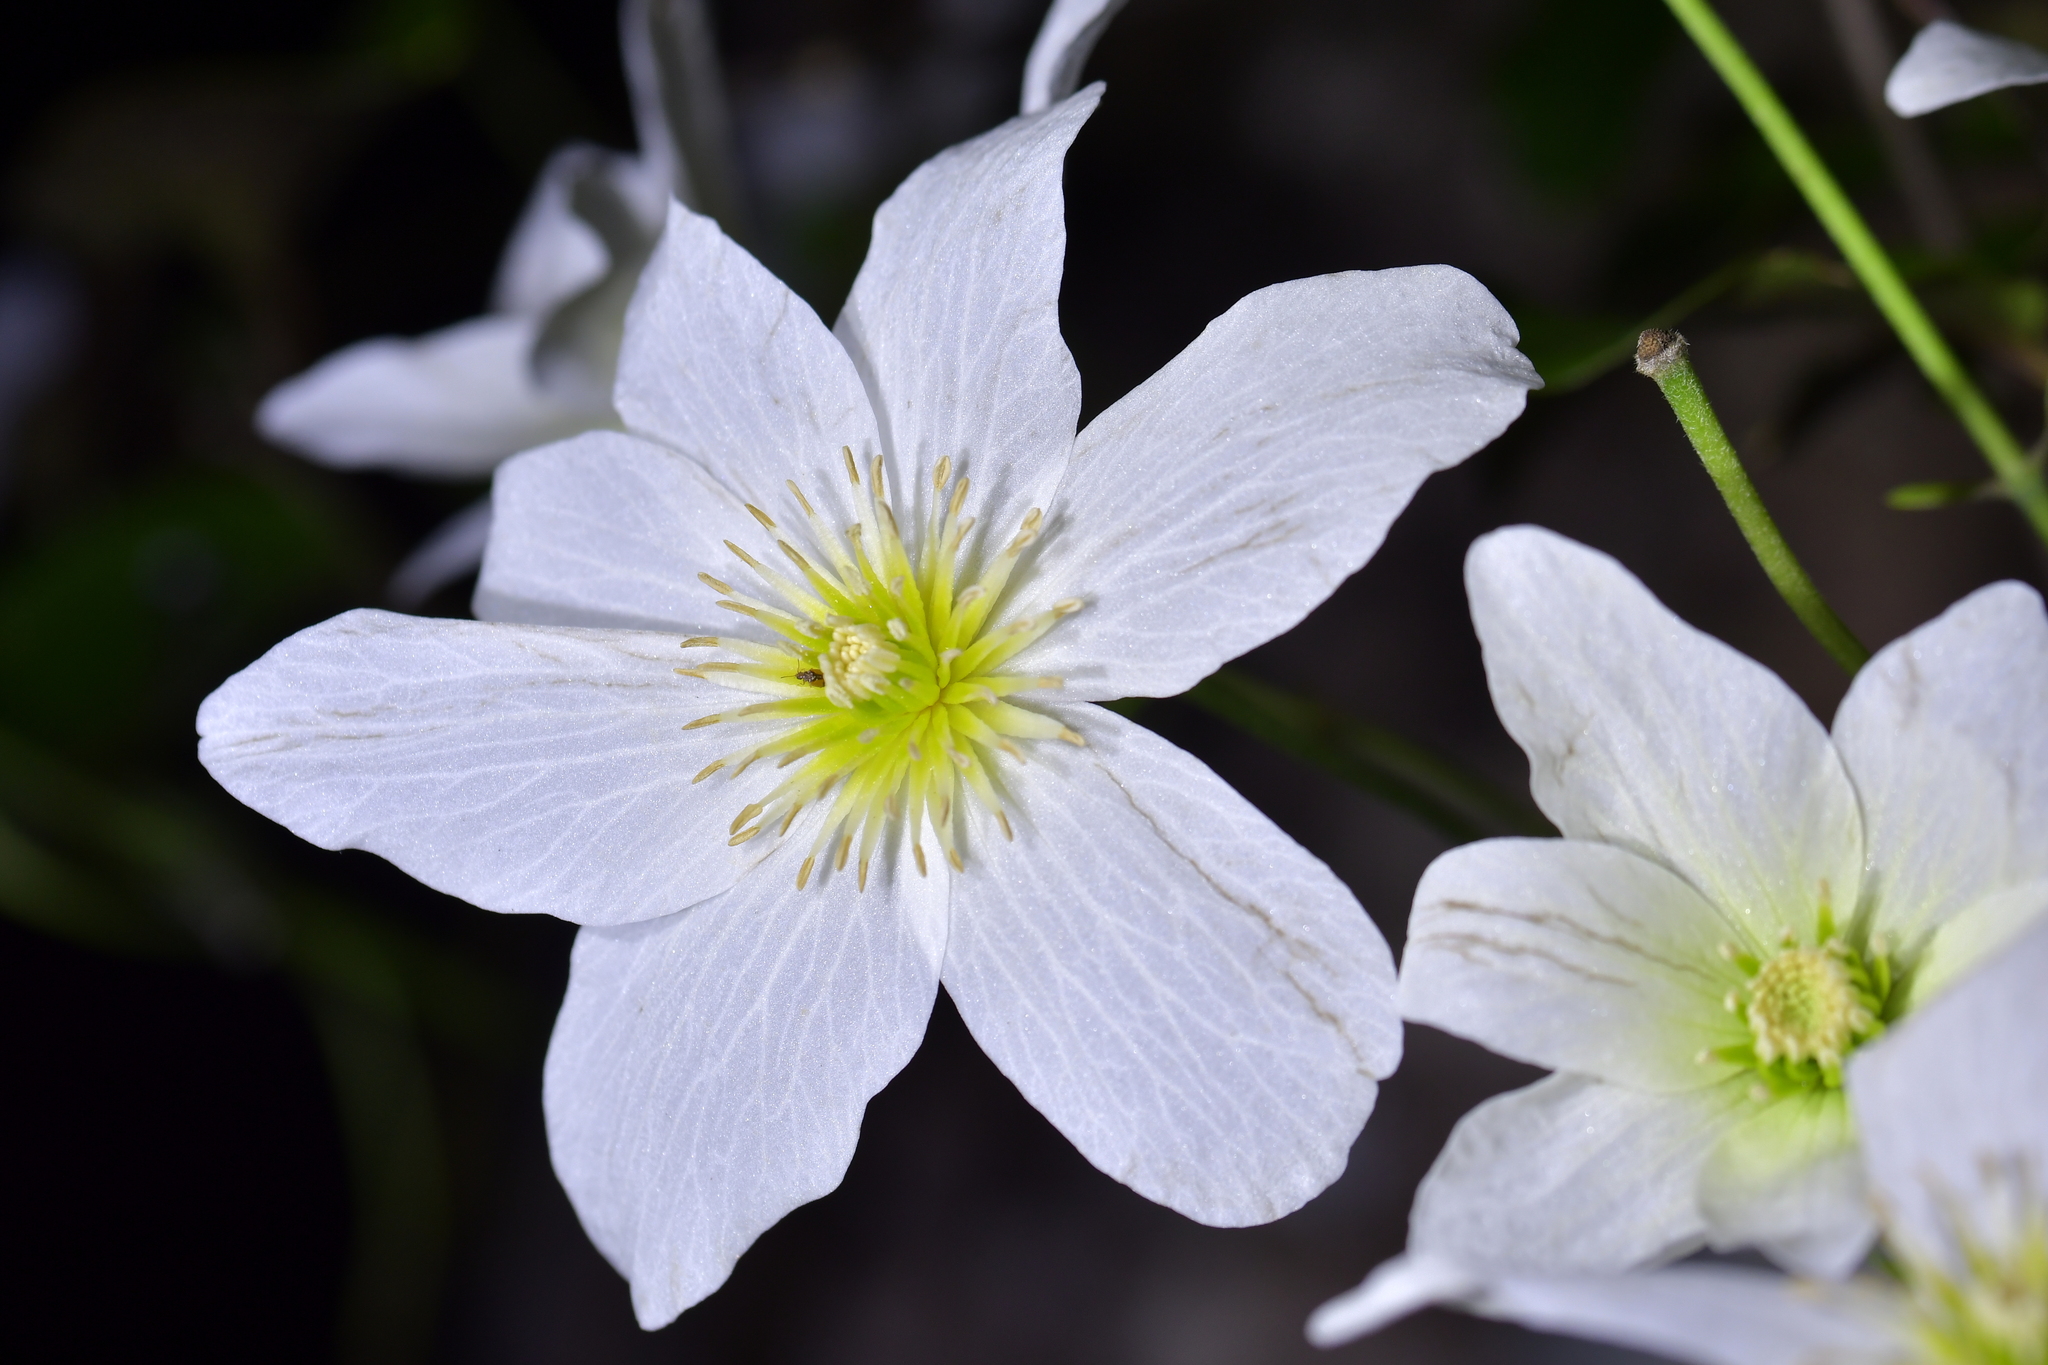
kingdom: Plantae
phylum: Tracheophyta
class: Magnoliopsida
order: Ranunculales
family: Ranunculaceae
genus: Clematis
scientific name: Clematis paniculata
